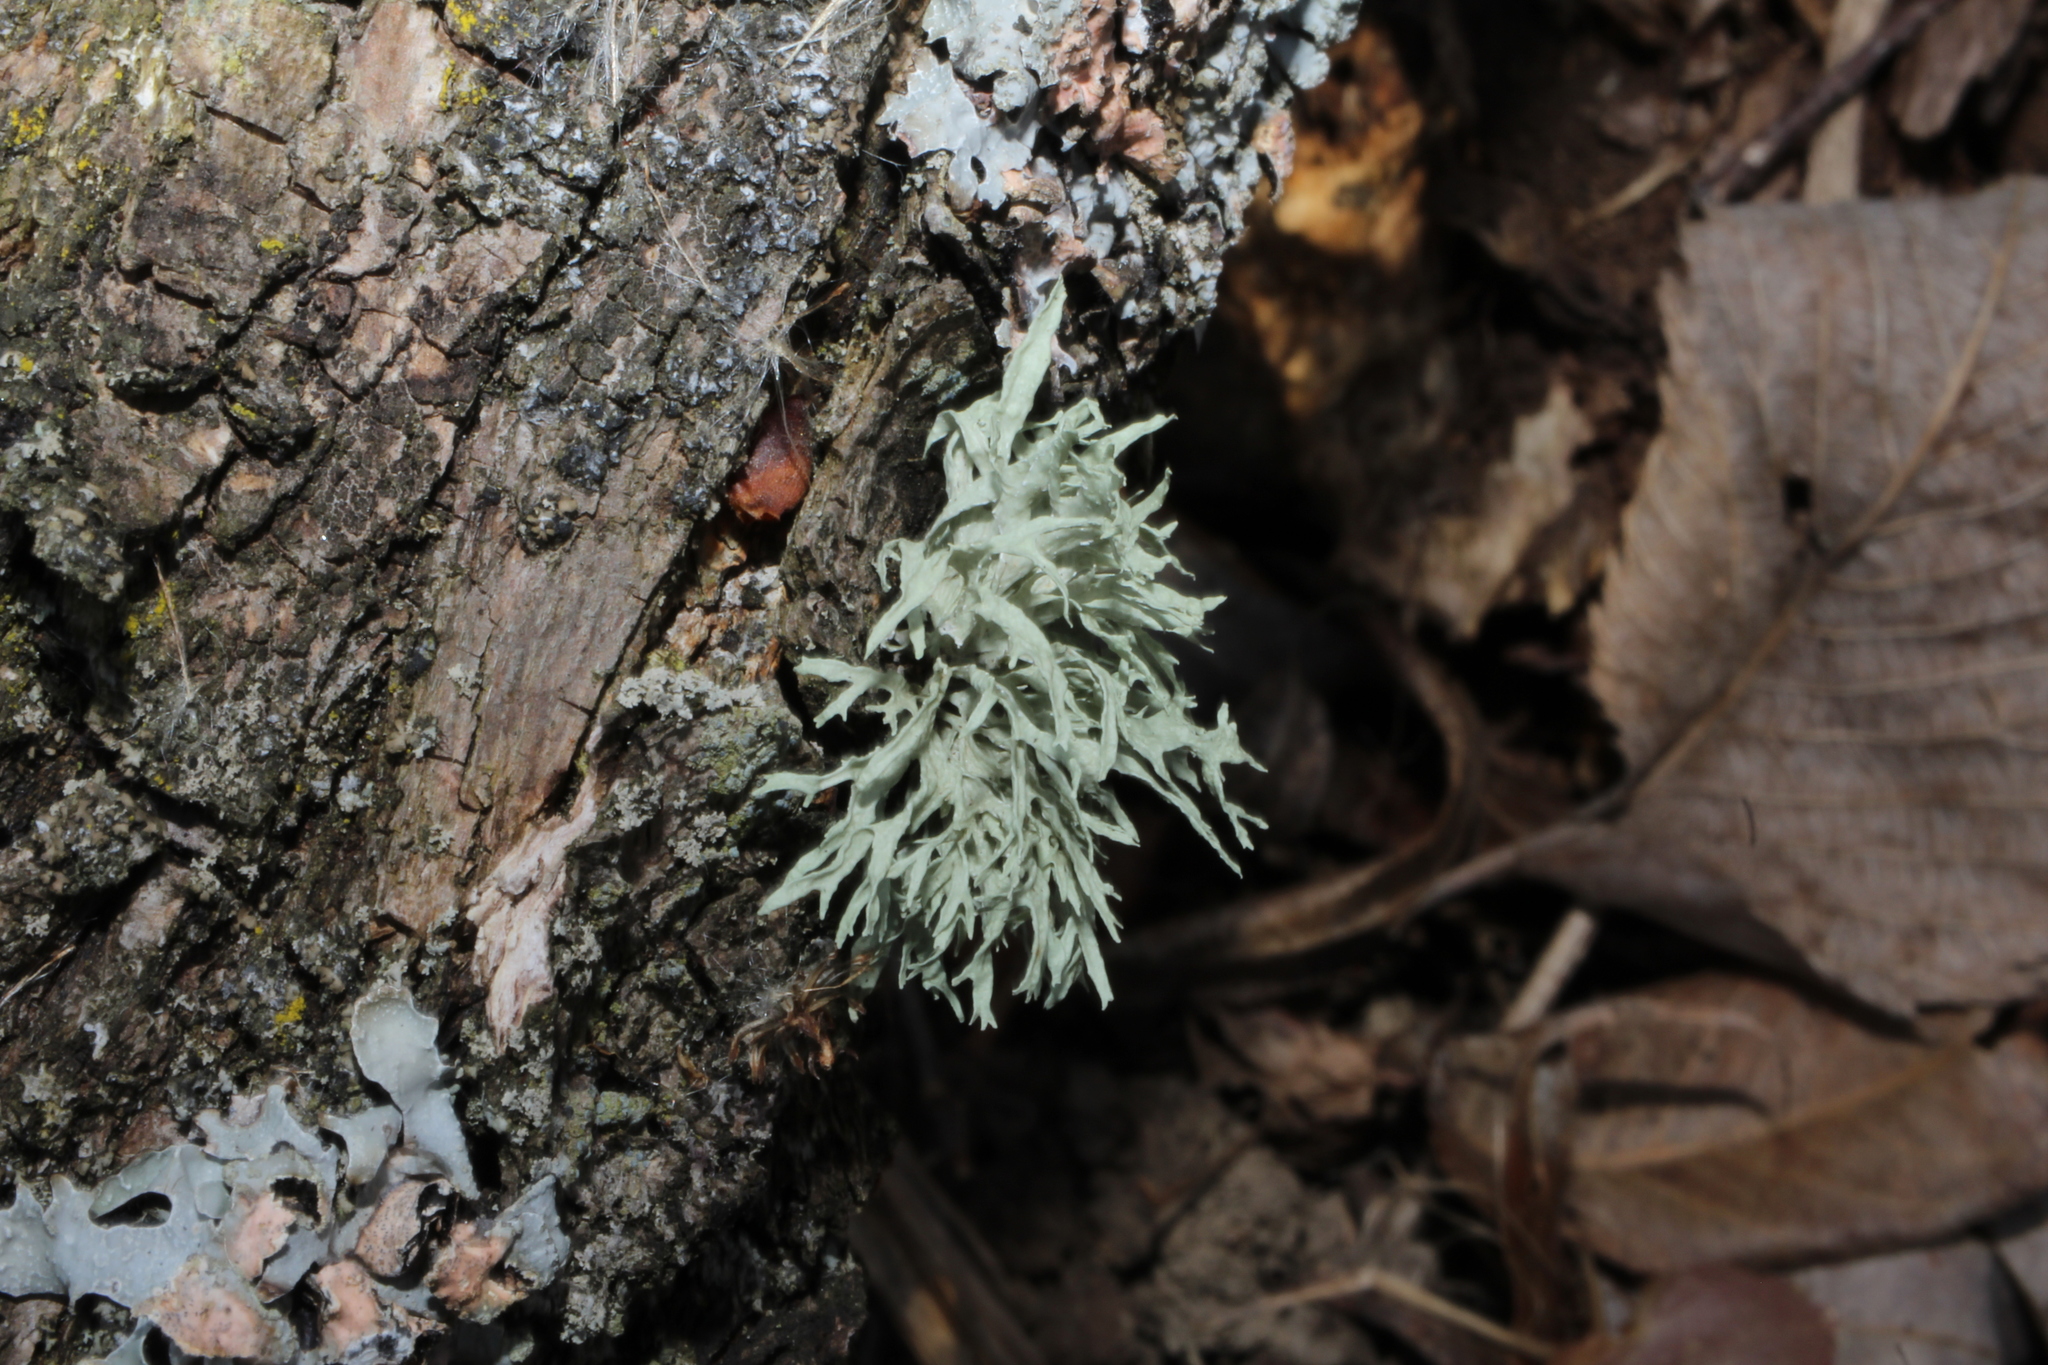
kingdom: Fungi
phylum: Ascomycota
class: Lecanoromycetes
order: Lecanorales
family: Ramalinaceae
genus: Ramalina
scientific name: Ramalina americana
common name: Sinewed bush lichen
